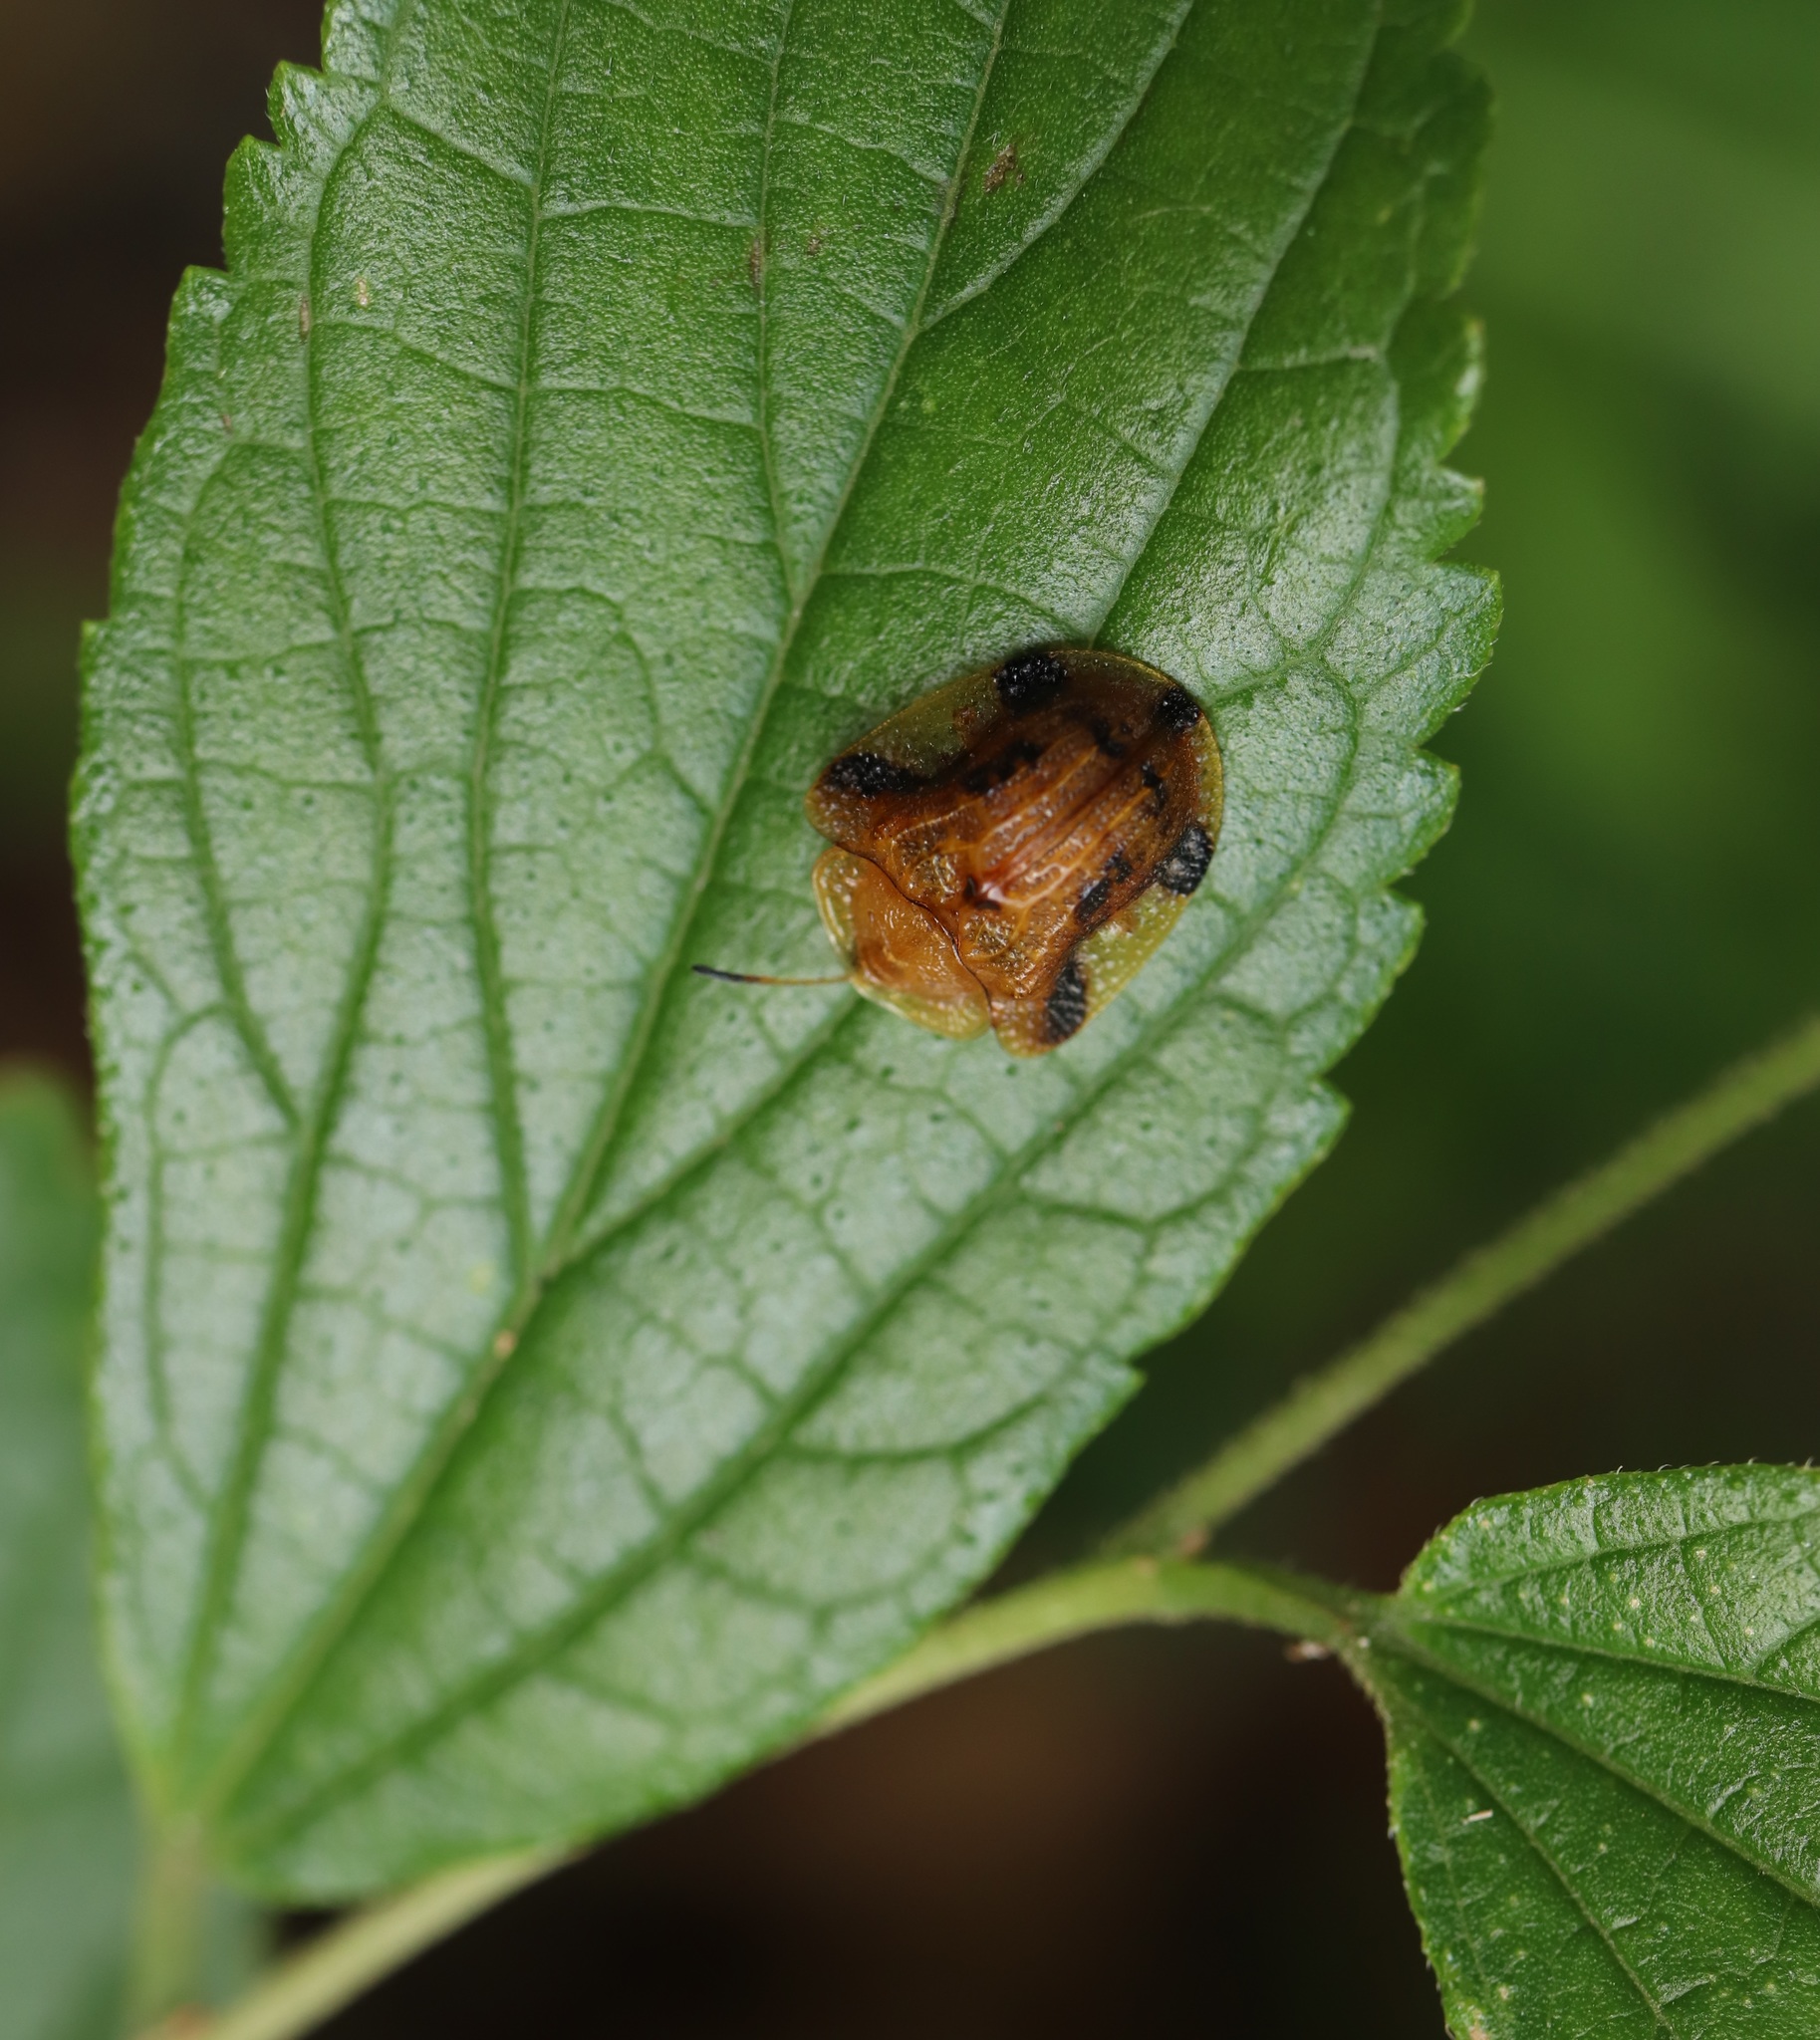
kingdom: Animalia
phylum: Arthropoda
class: Insecta
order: Coleoptera
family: Chrysomelidae
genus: Laccoptera
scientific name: Laccoptera nepalensis
